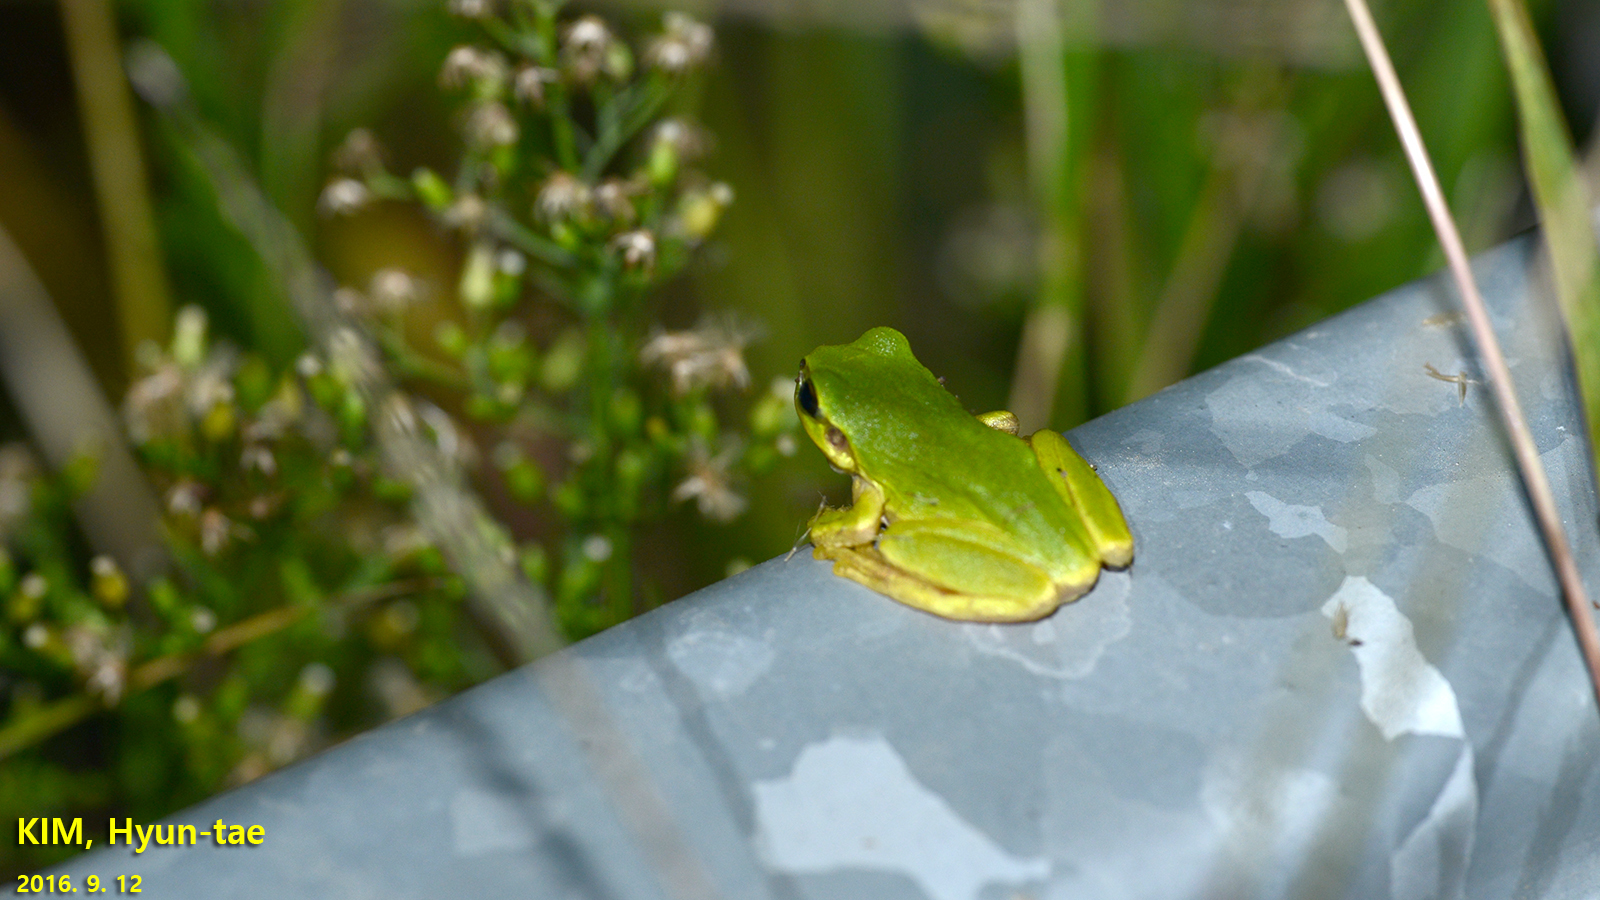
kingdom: Animalia
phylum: Chordata
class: Amphibia
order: Anura
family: Hylidae
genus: Dryophytes
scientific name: Dryophytes japonicus
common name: Japanese treefrog
